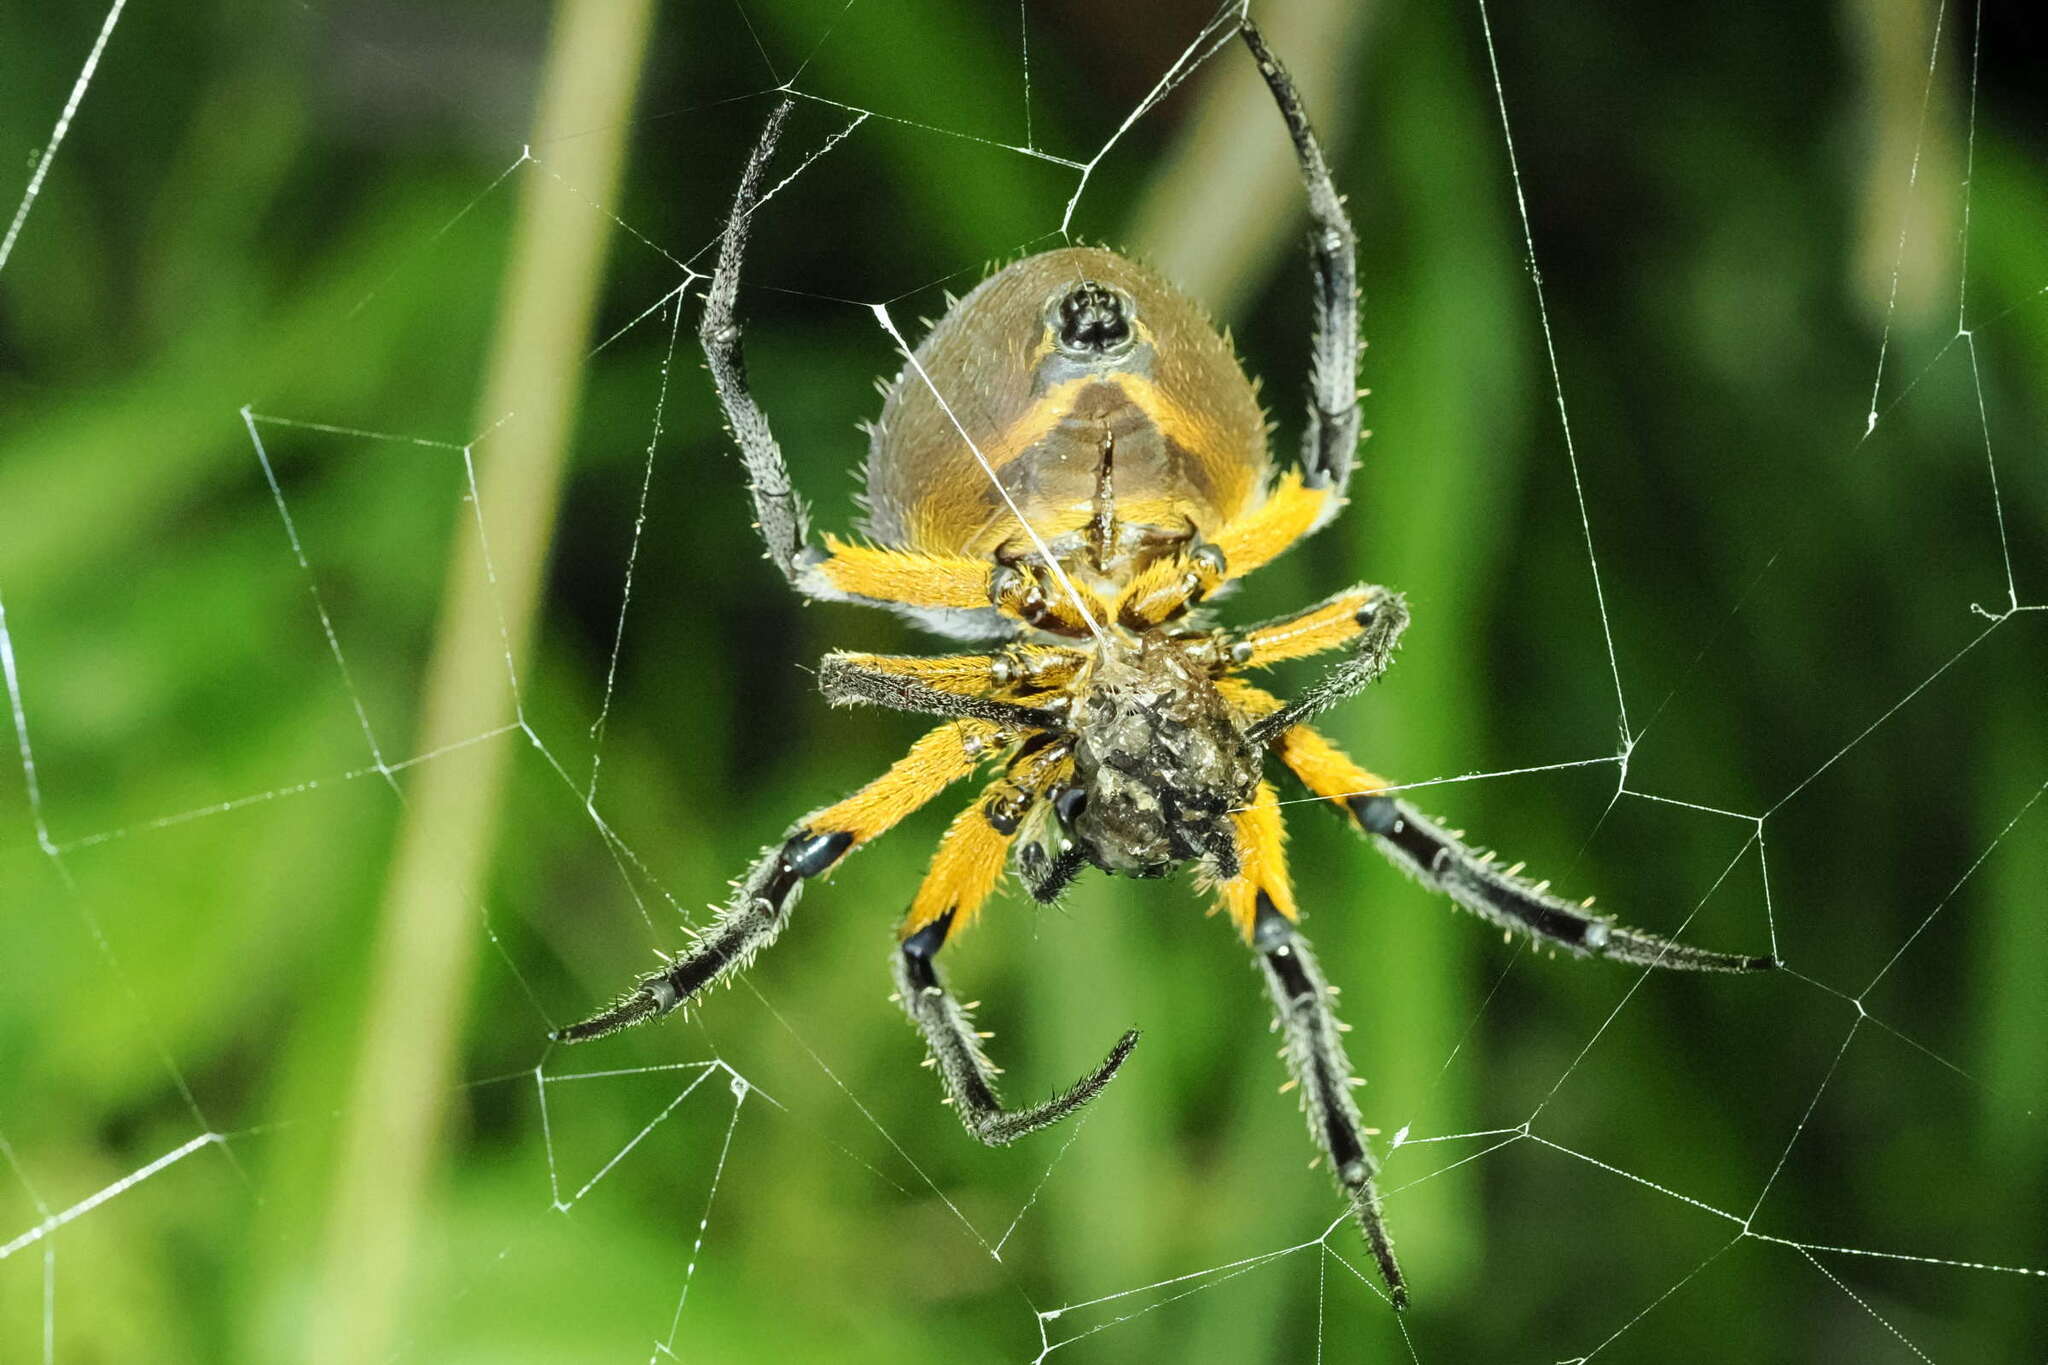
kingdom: Animalia
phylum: Arthropoda
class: Arachnida
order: Araneae
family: Araneidae
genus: Eriophora
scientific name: Eriophora fuliginea
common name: Orb weavers
